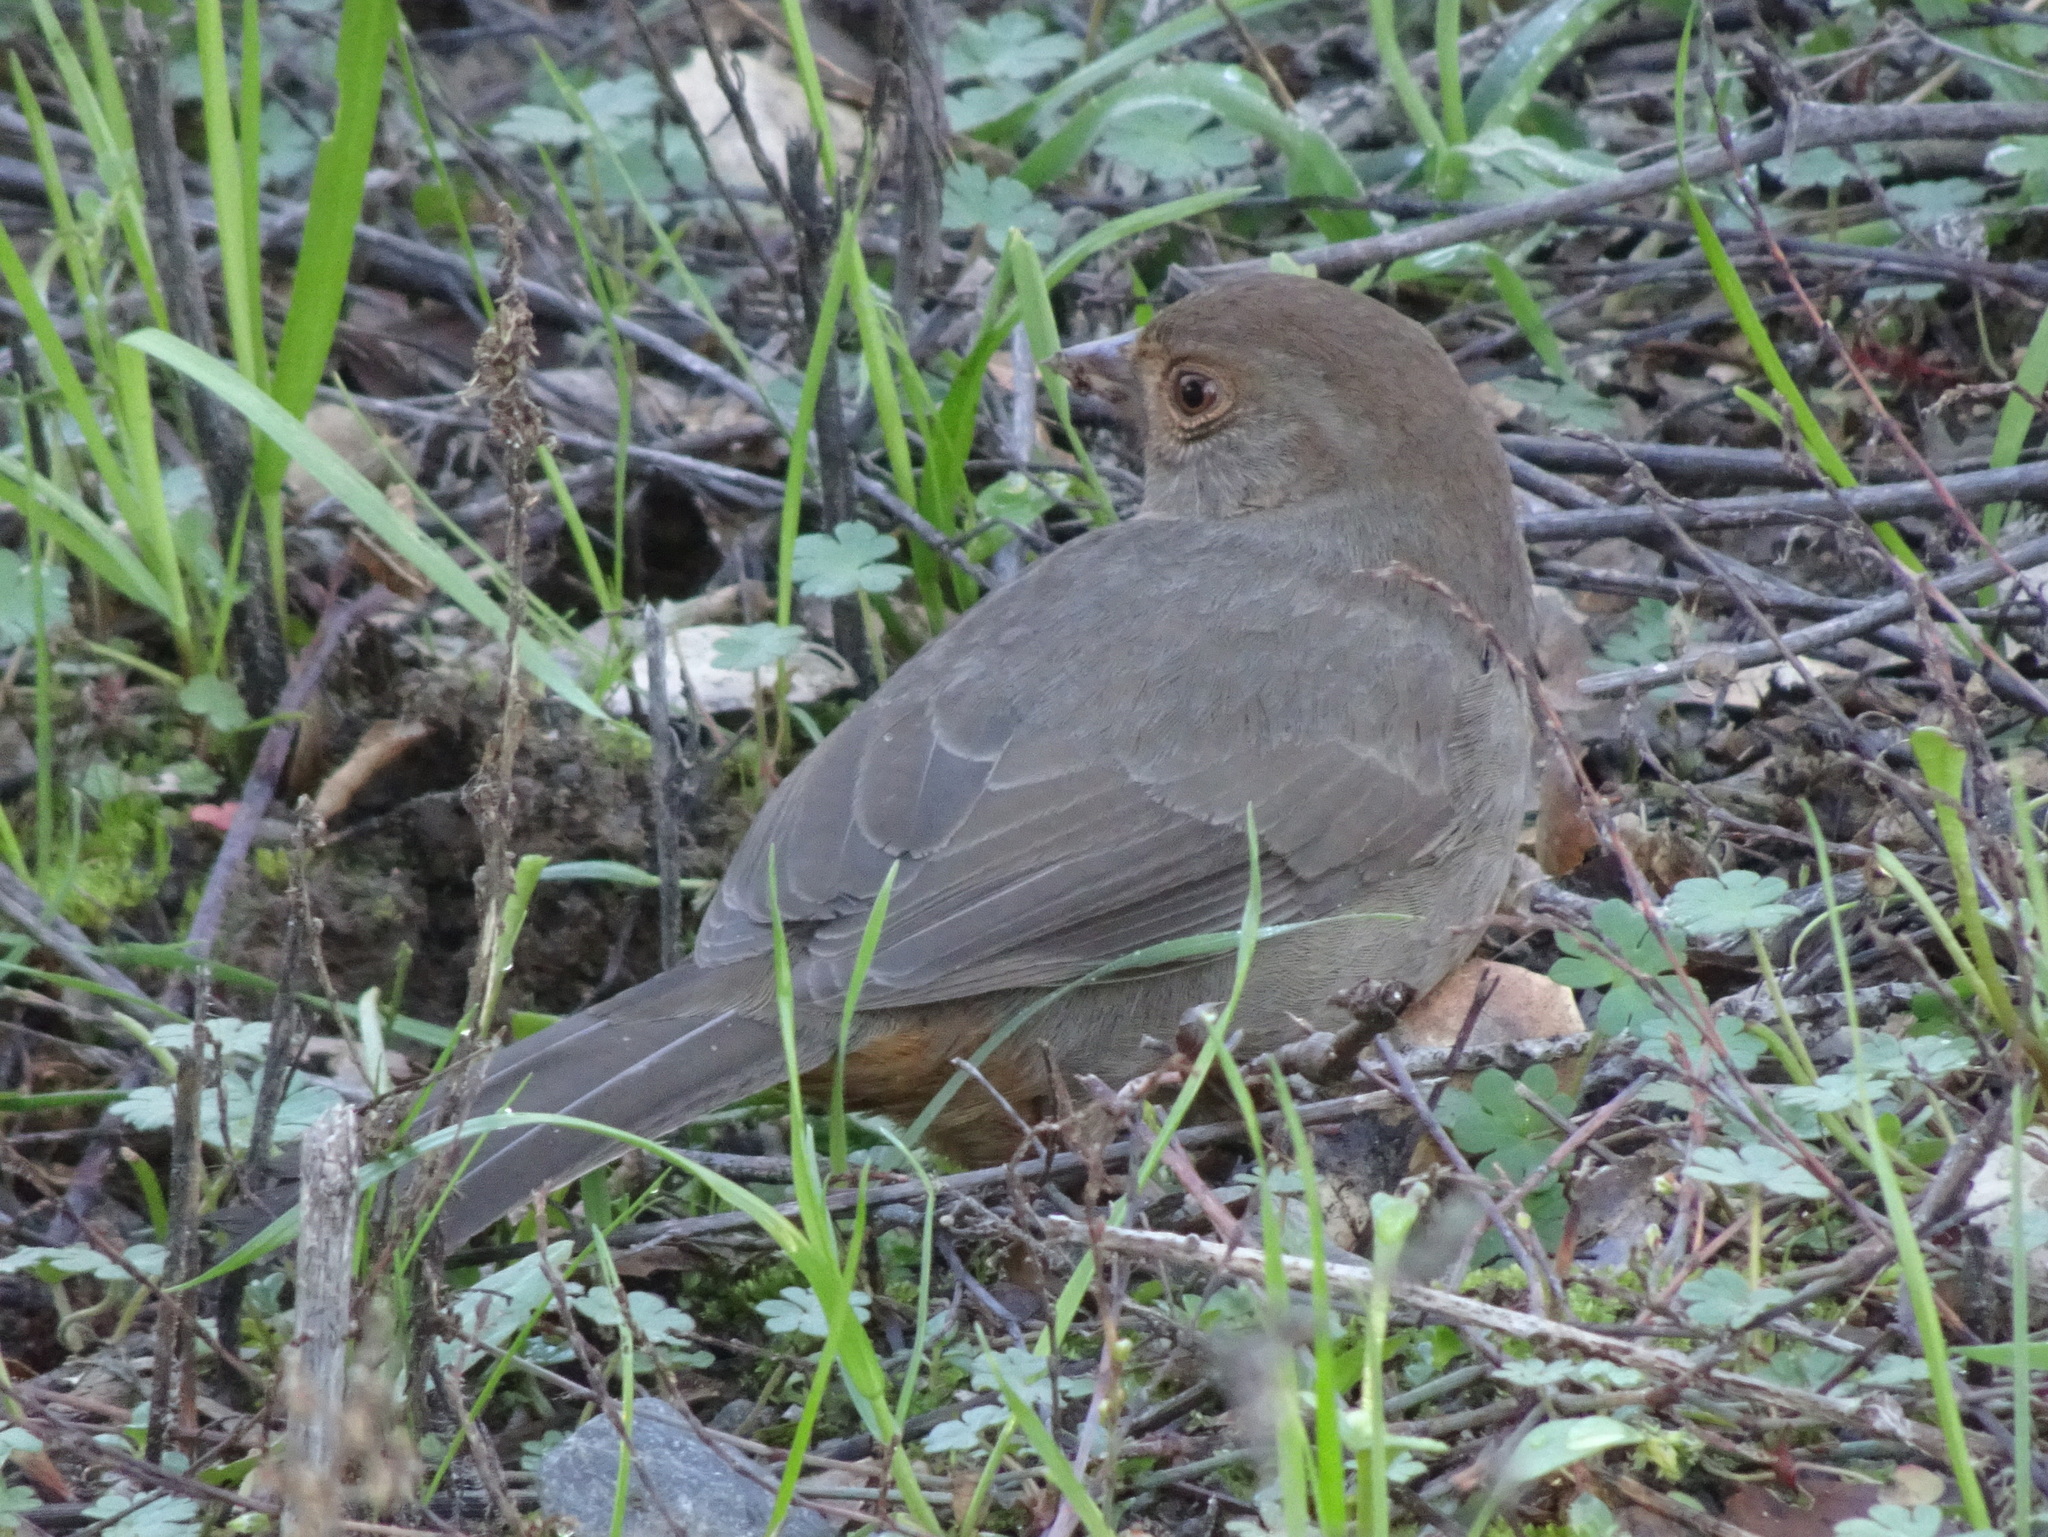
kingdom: Animalia
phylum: Chordata
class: Aves
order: Passeriformes
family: Passerellidae
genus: Melozone
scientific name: Melozone crissalis
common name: California towhee
